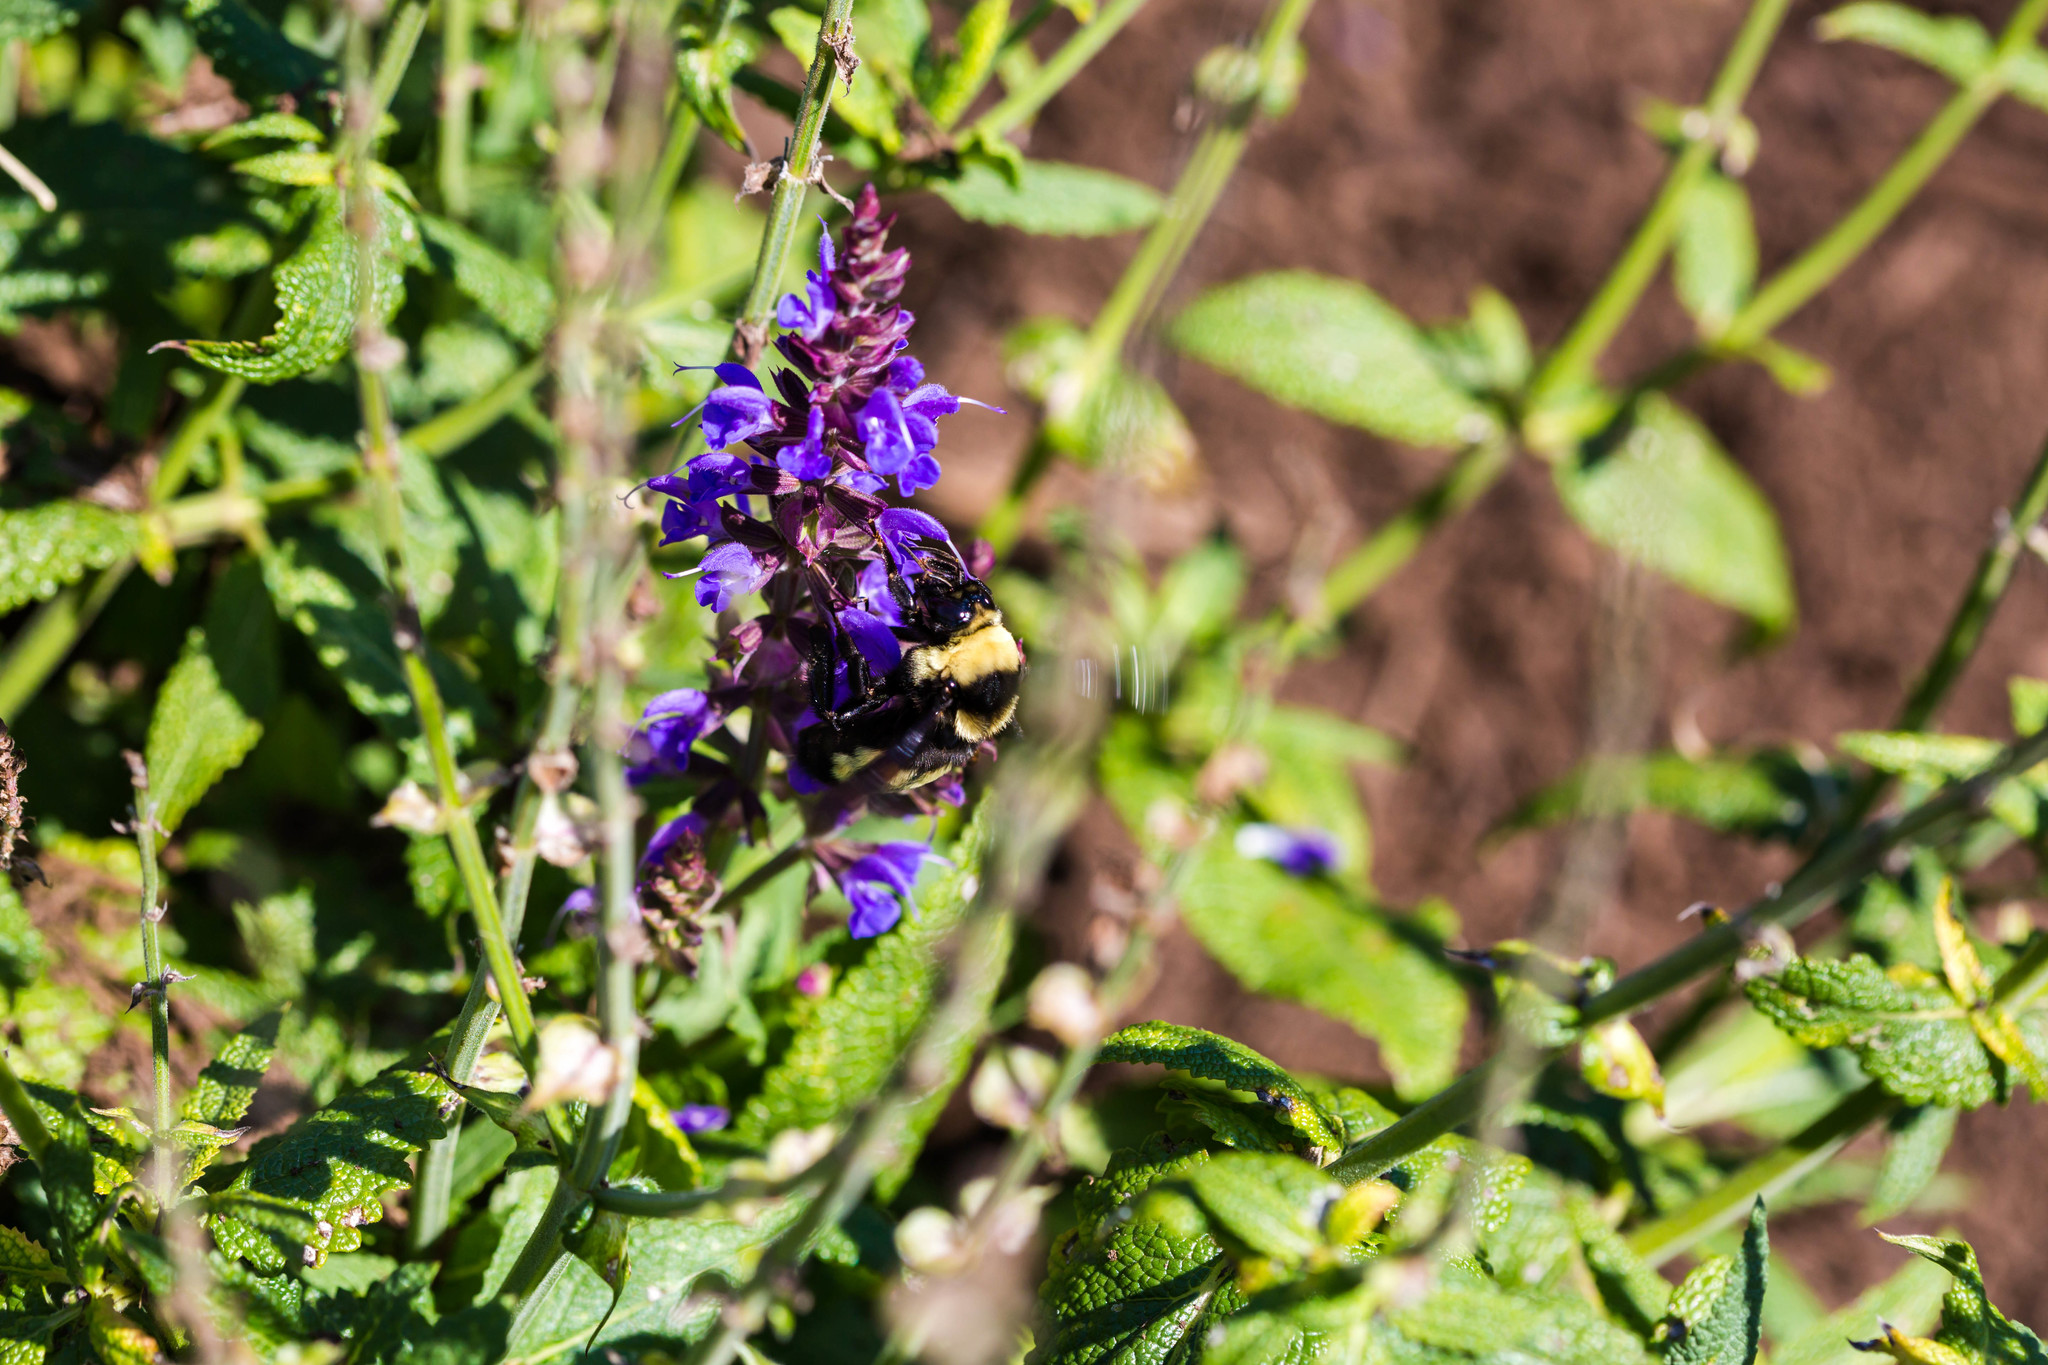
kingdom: Animalia
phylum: Arthropoda
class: Insecta
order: Hymenoptera
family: Apidae
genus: Bombus
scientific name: Bombus auricomus
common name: Black and gold bumble bee
